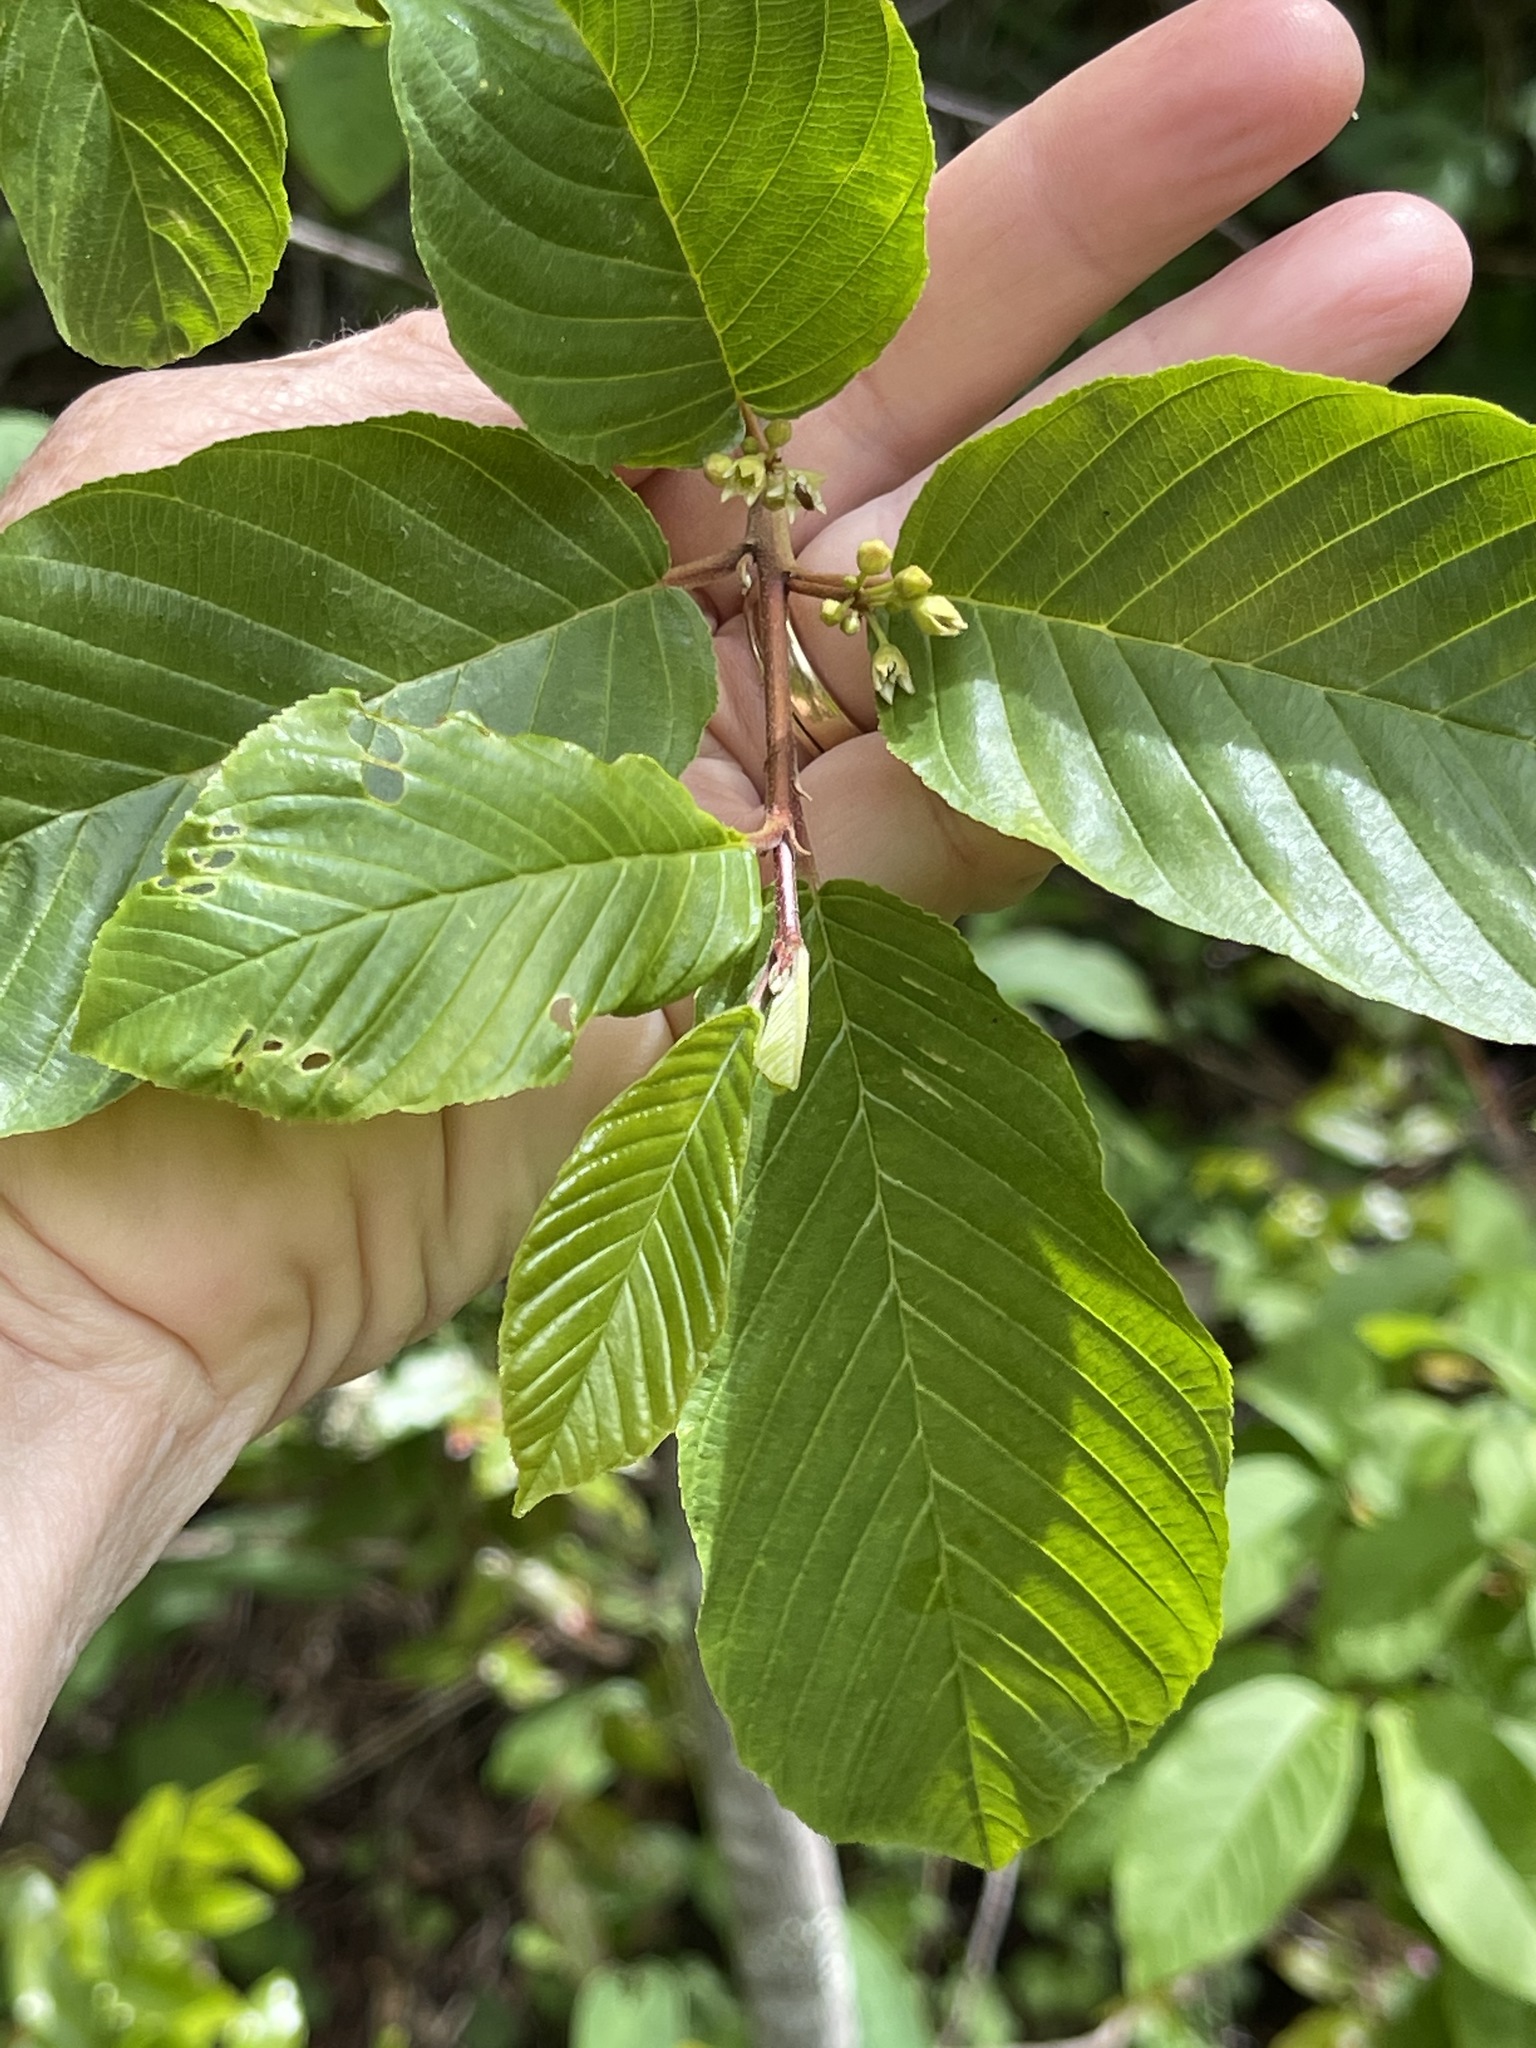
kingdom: Plantae
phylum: Tracheophyta
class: Magnoliopsida
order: Rosales
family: Rhamnaceae
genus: Frangula
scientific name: Frangula purshiana
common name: Cascara buckthorn
